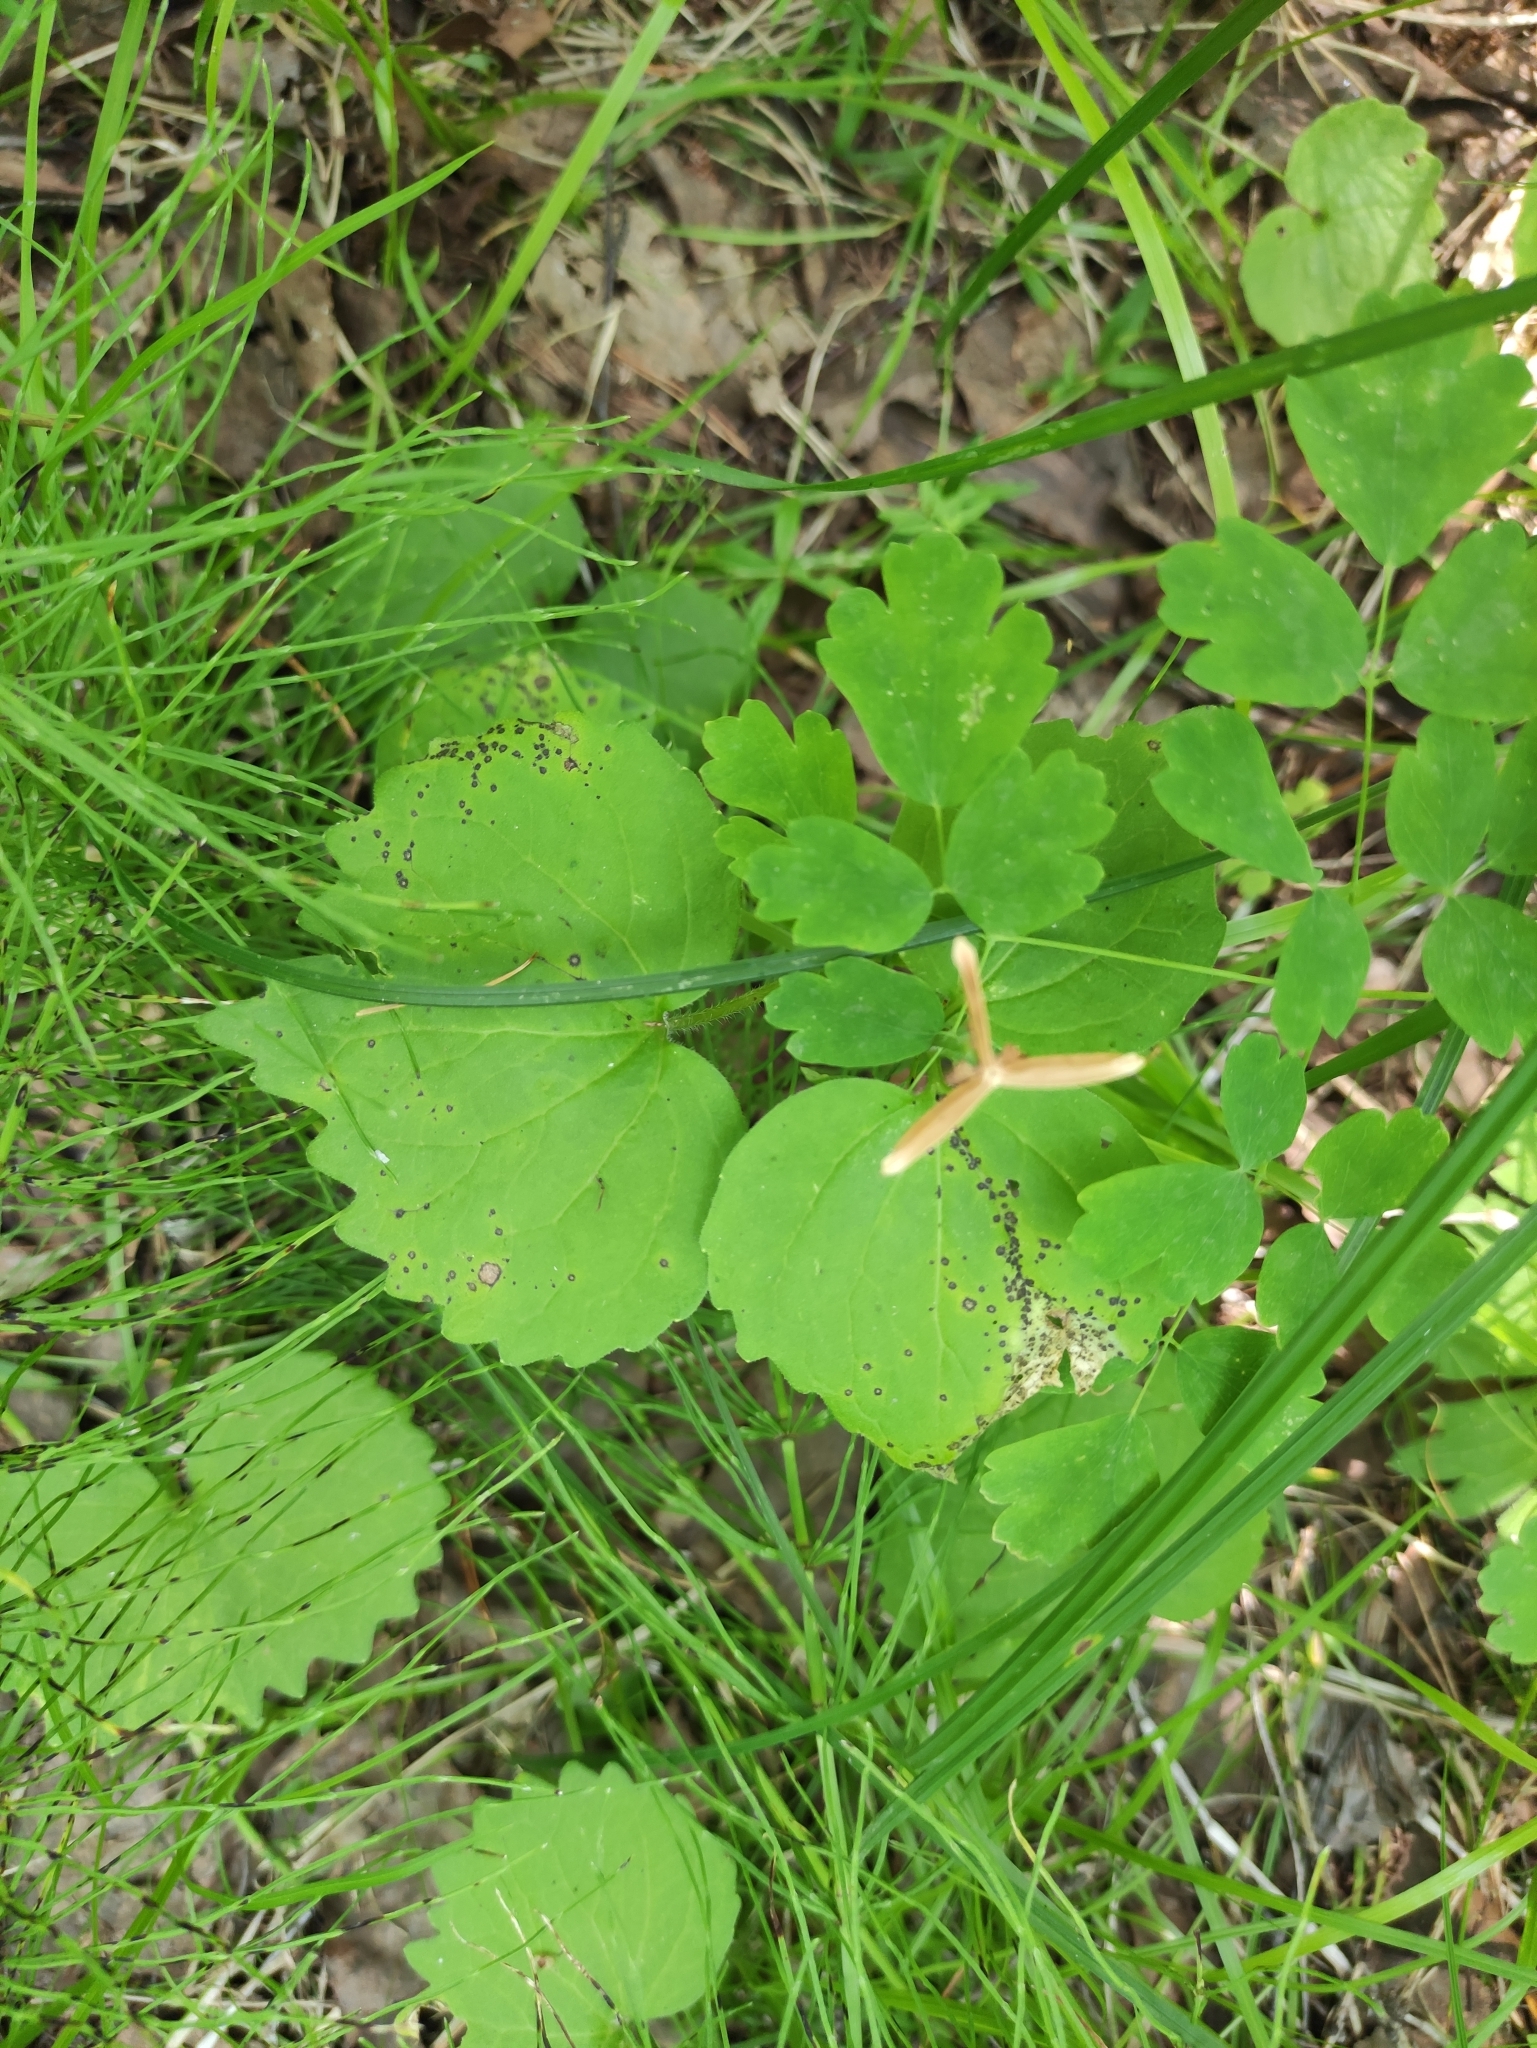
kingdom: Plantae
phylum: Tracheophyta
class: Magnoliopsida
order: Malpighiales
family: Violaceae
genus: Viola
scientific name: Viola uniflora
